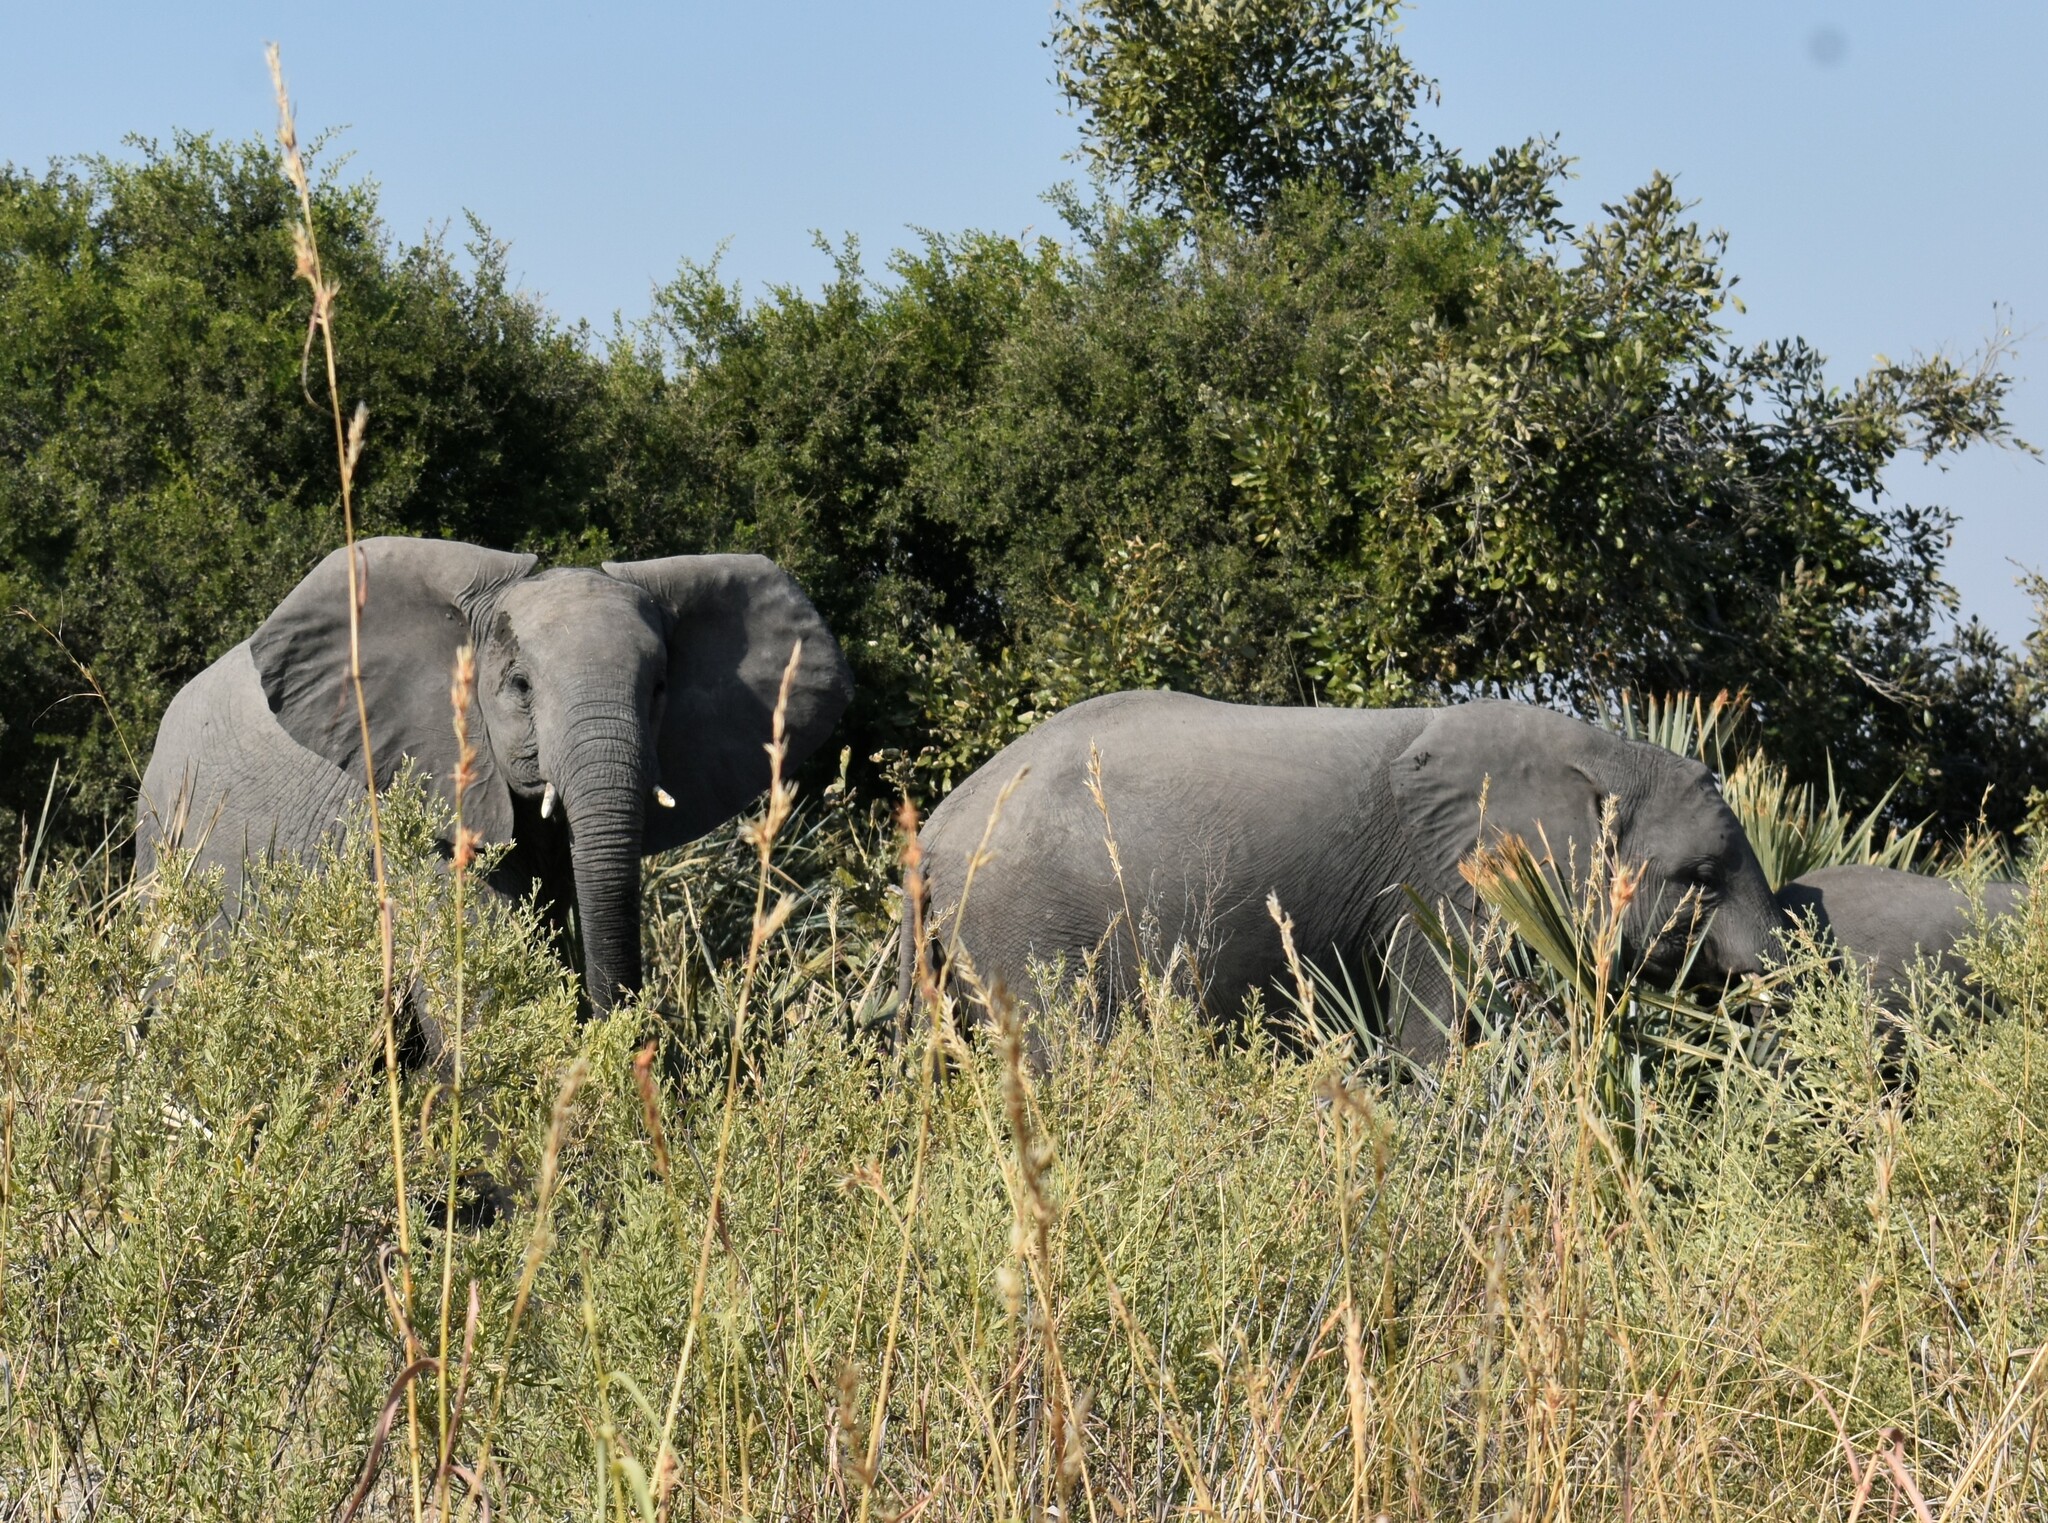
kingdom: Animalia
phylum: Chordata
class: Mammalia
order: Proboscidea
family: Elephantidae
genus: Loxodonta
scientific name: Loxodonta africana
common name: African elephant
